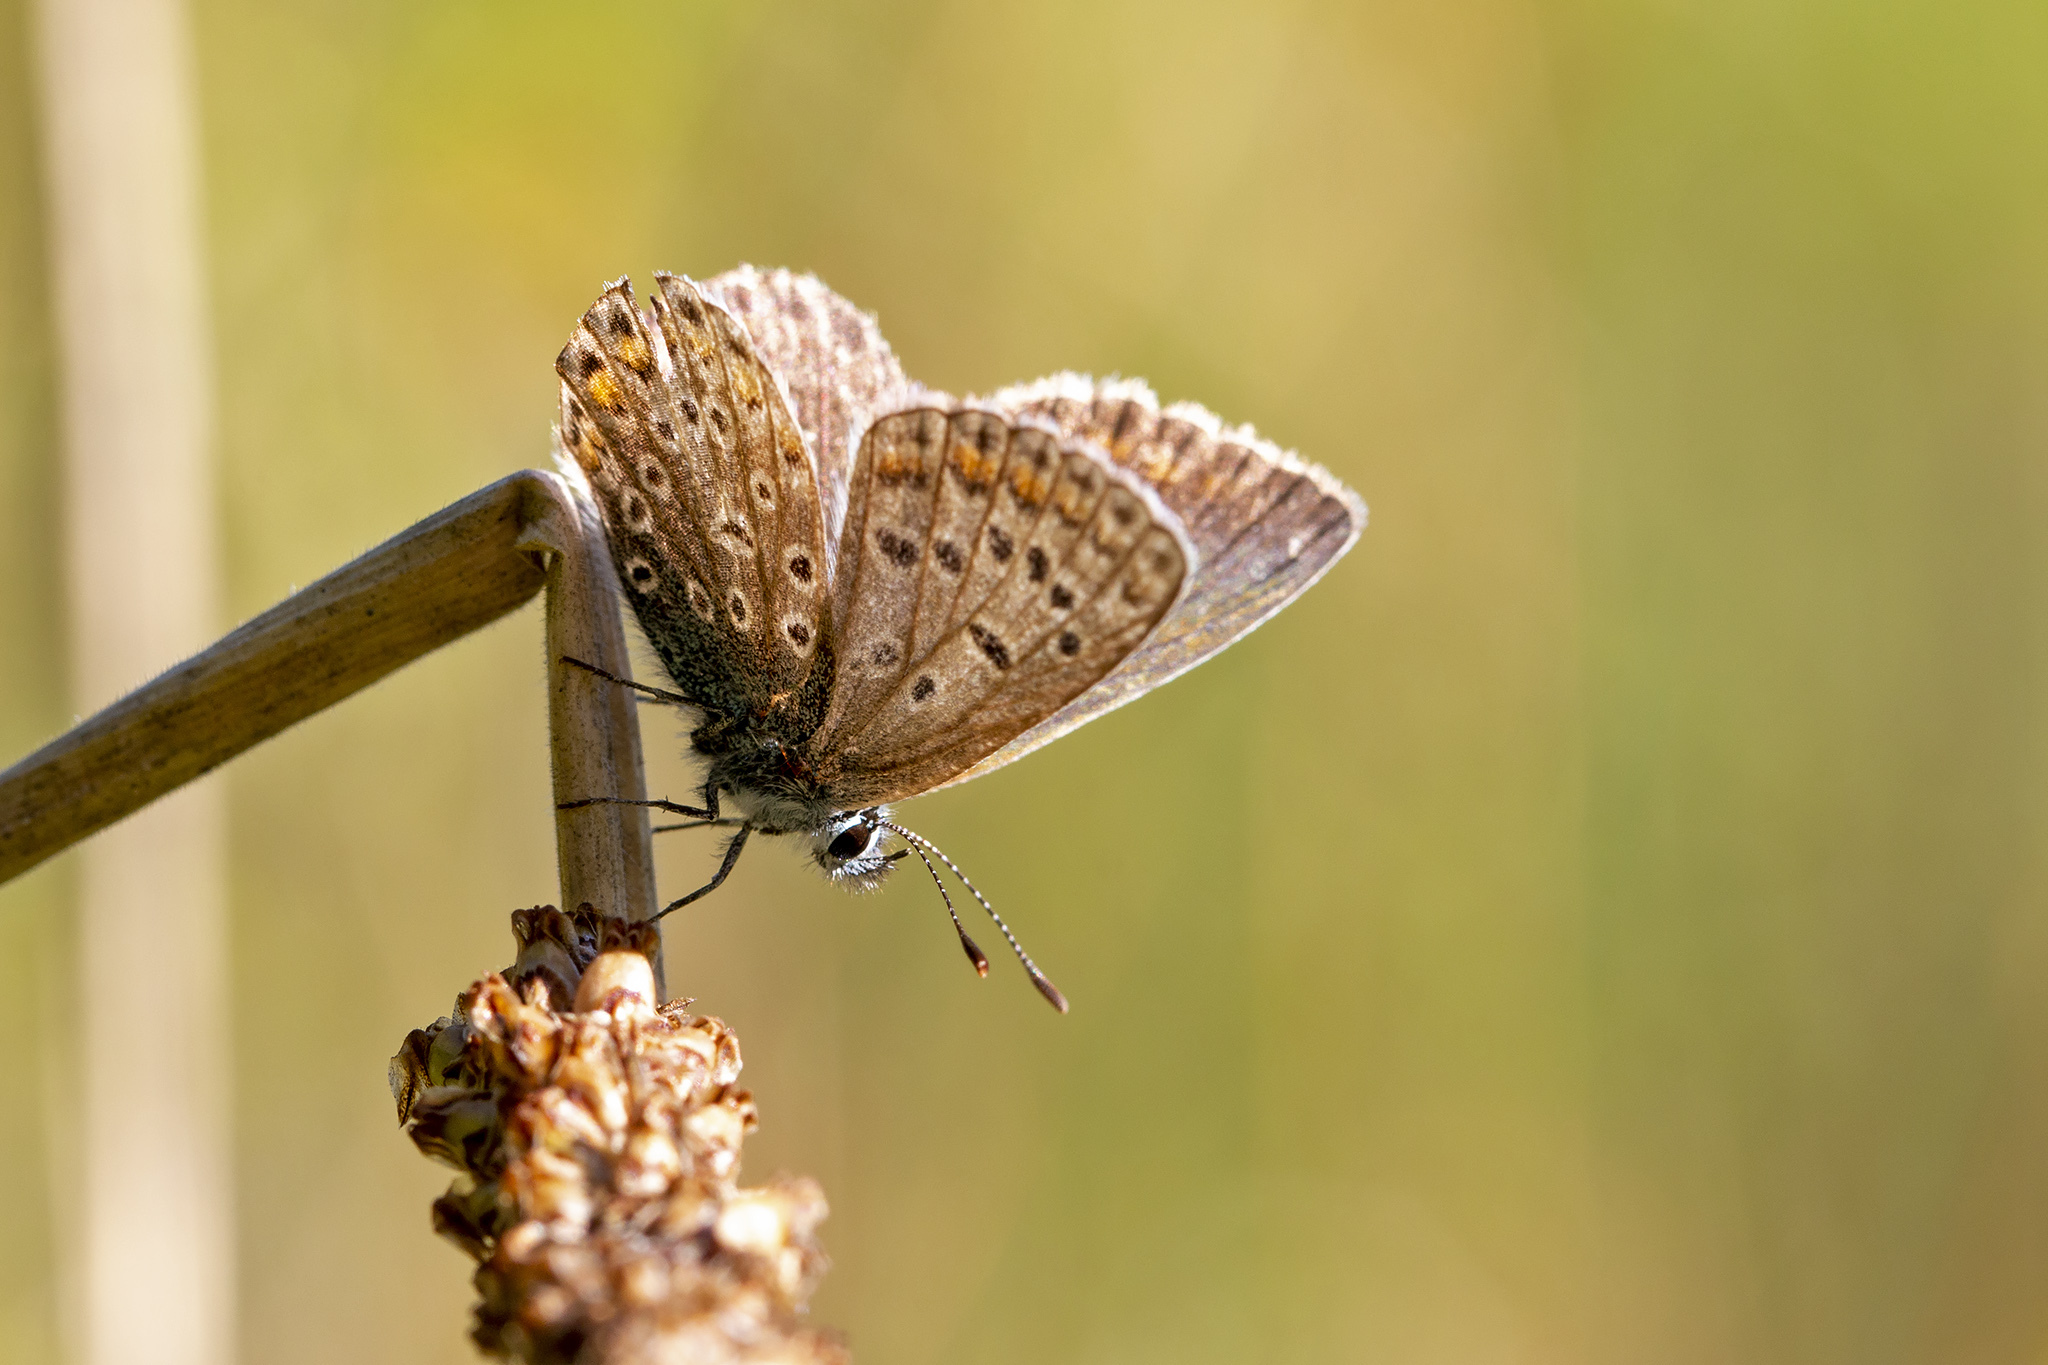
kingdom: Animalia
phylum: Arthropoda
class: Insecta
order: Lepidoptera
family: Lycaenidae
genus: Polyommatus
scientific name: Polyommatus icarus
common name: Common blue
